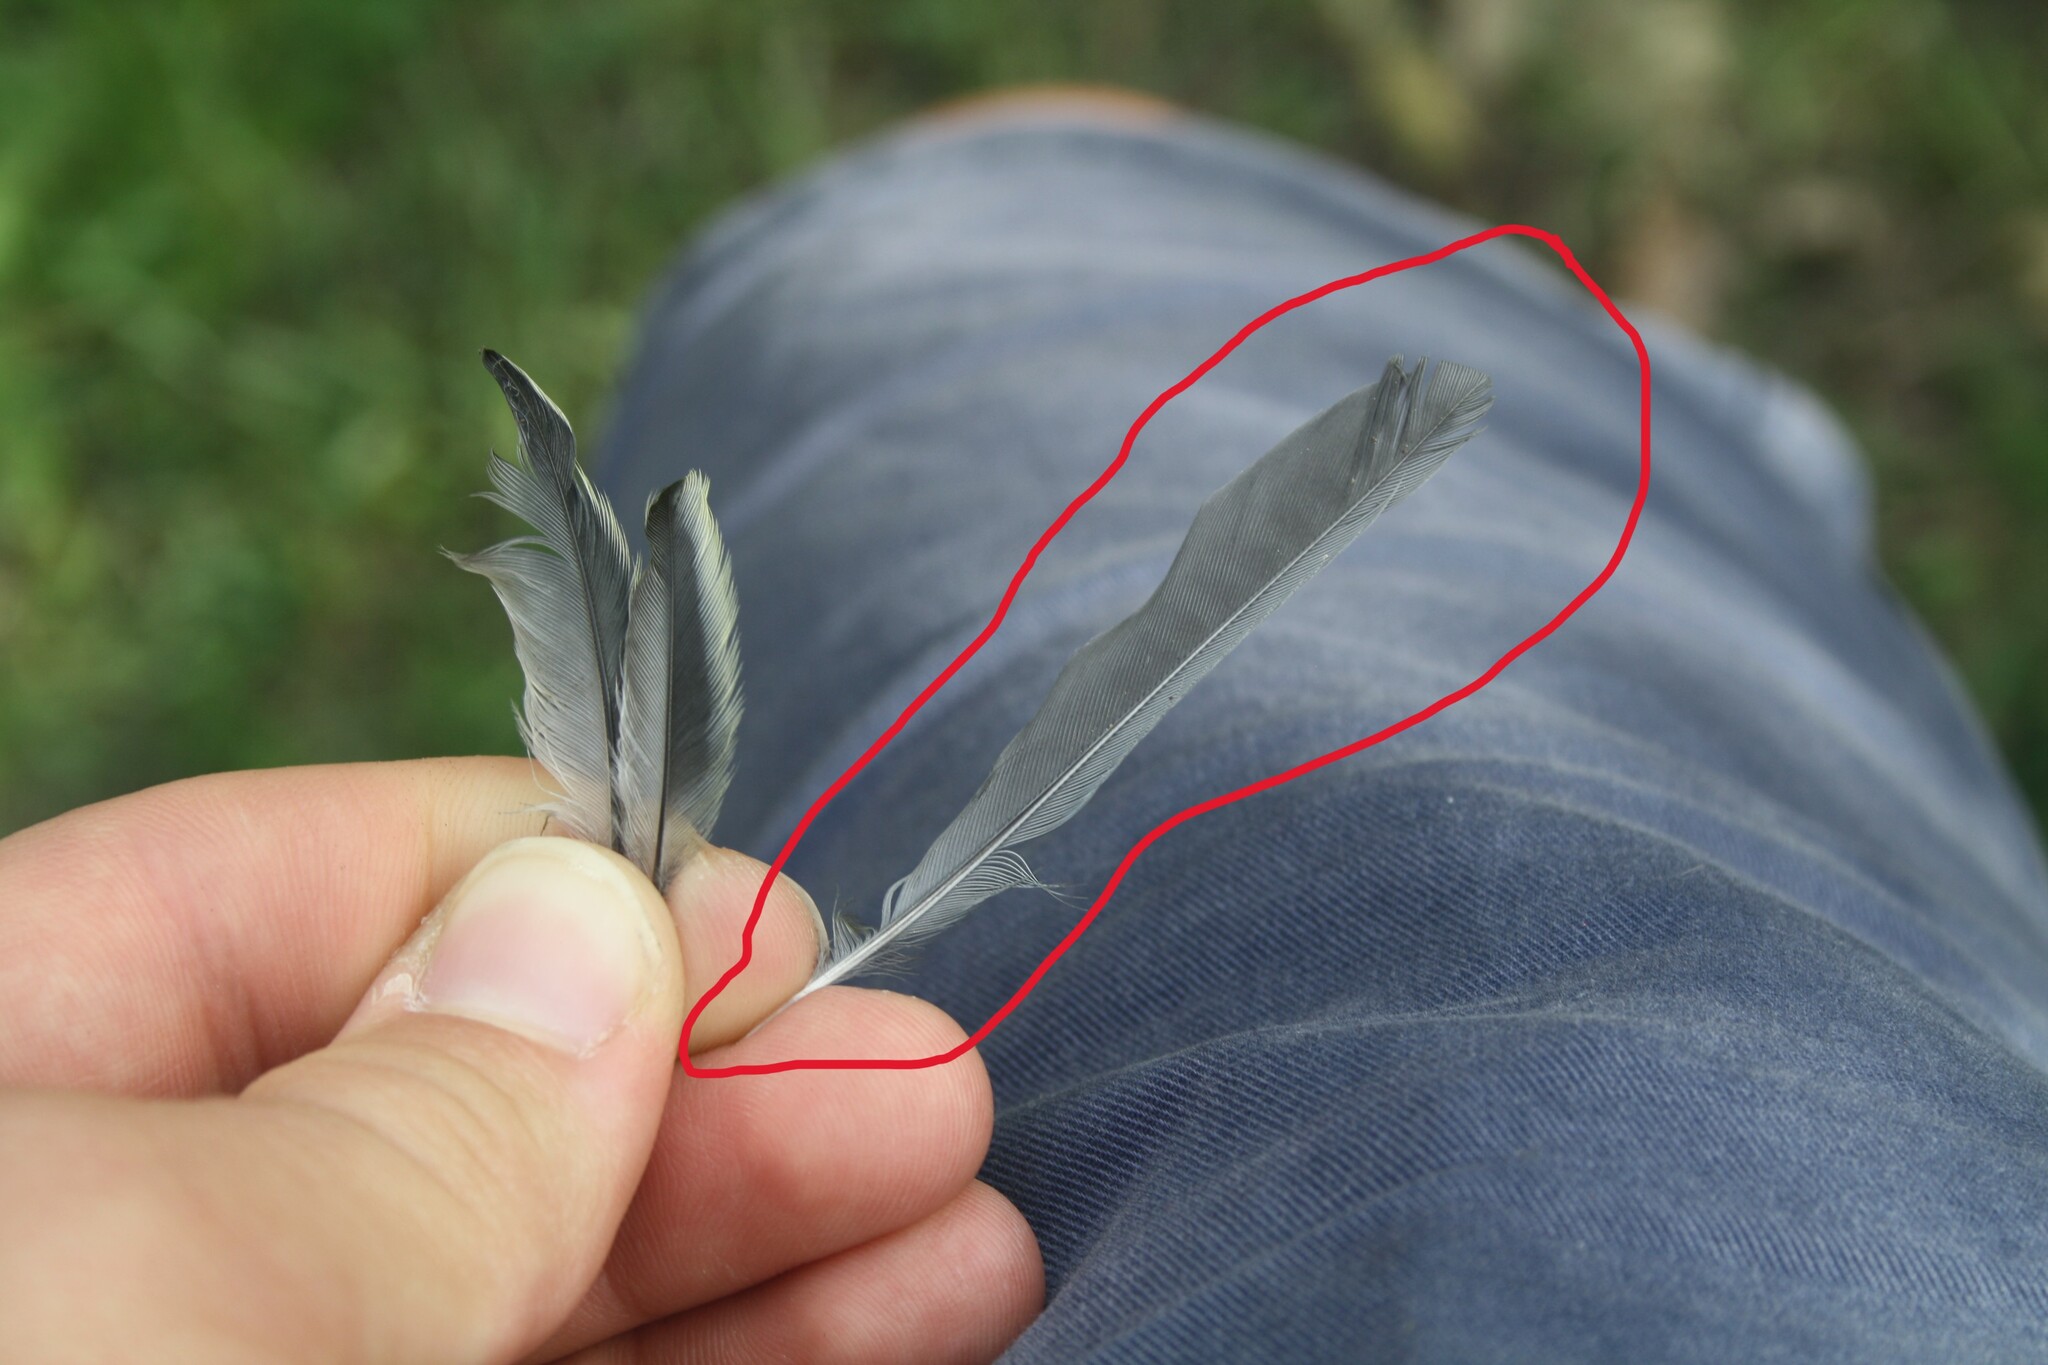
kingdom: Animalia
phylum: Chordata
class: Aves
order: Passeriformes
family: Paridae
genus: Parus
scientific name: Parus major
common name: Great tit
